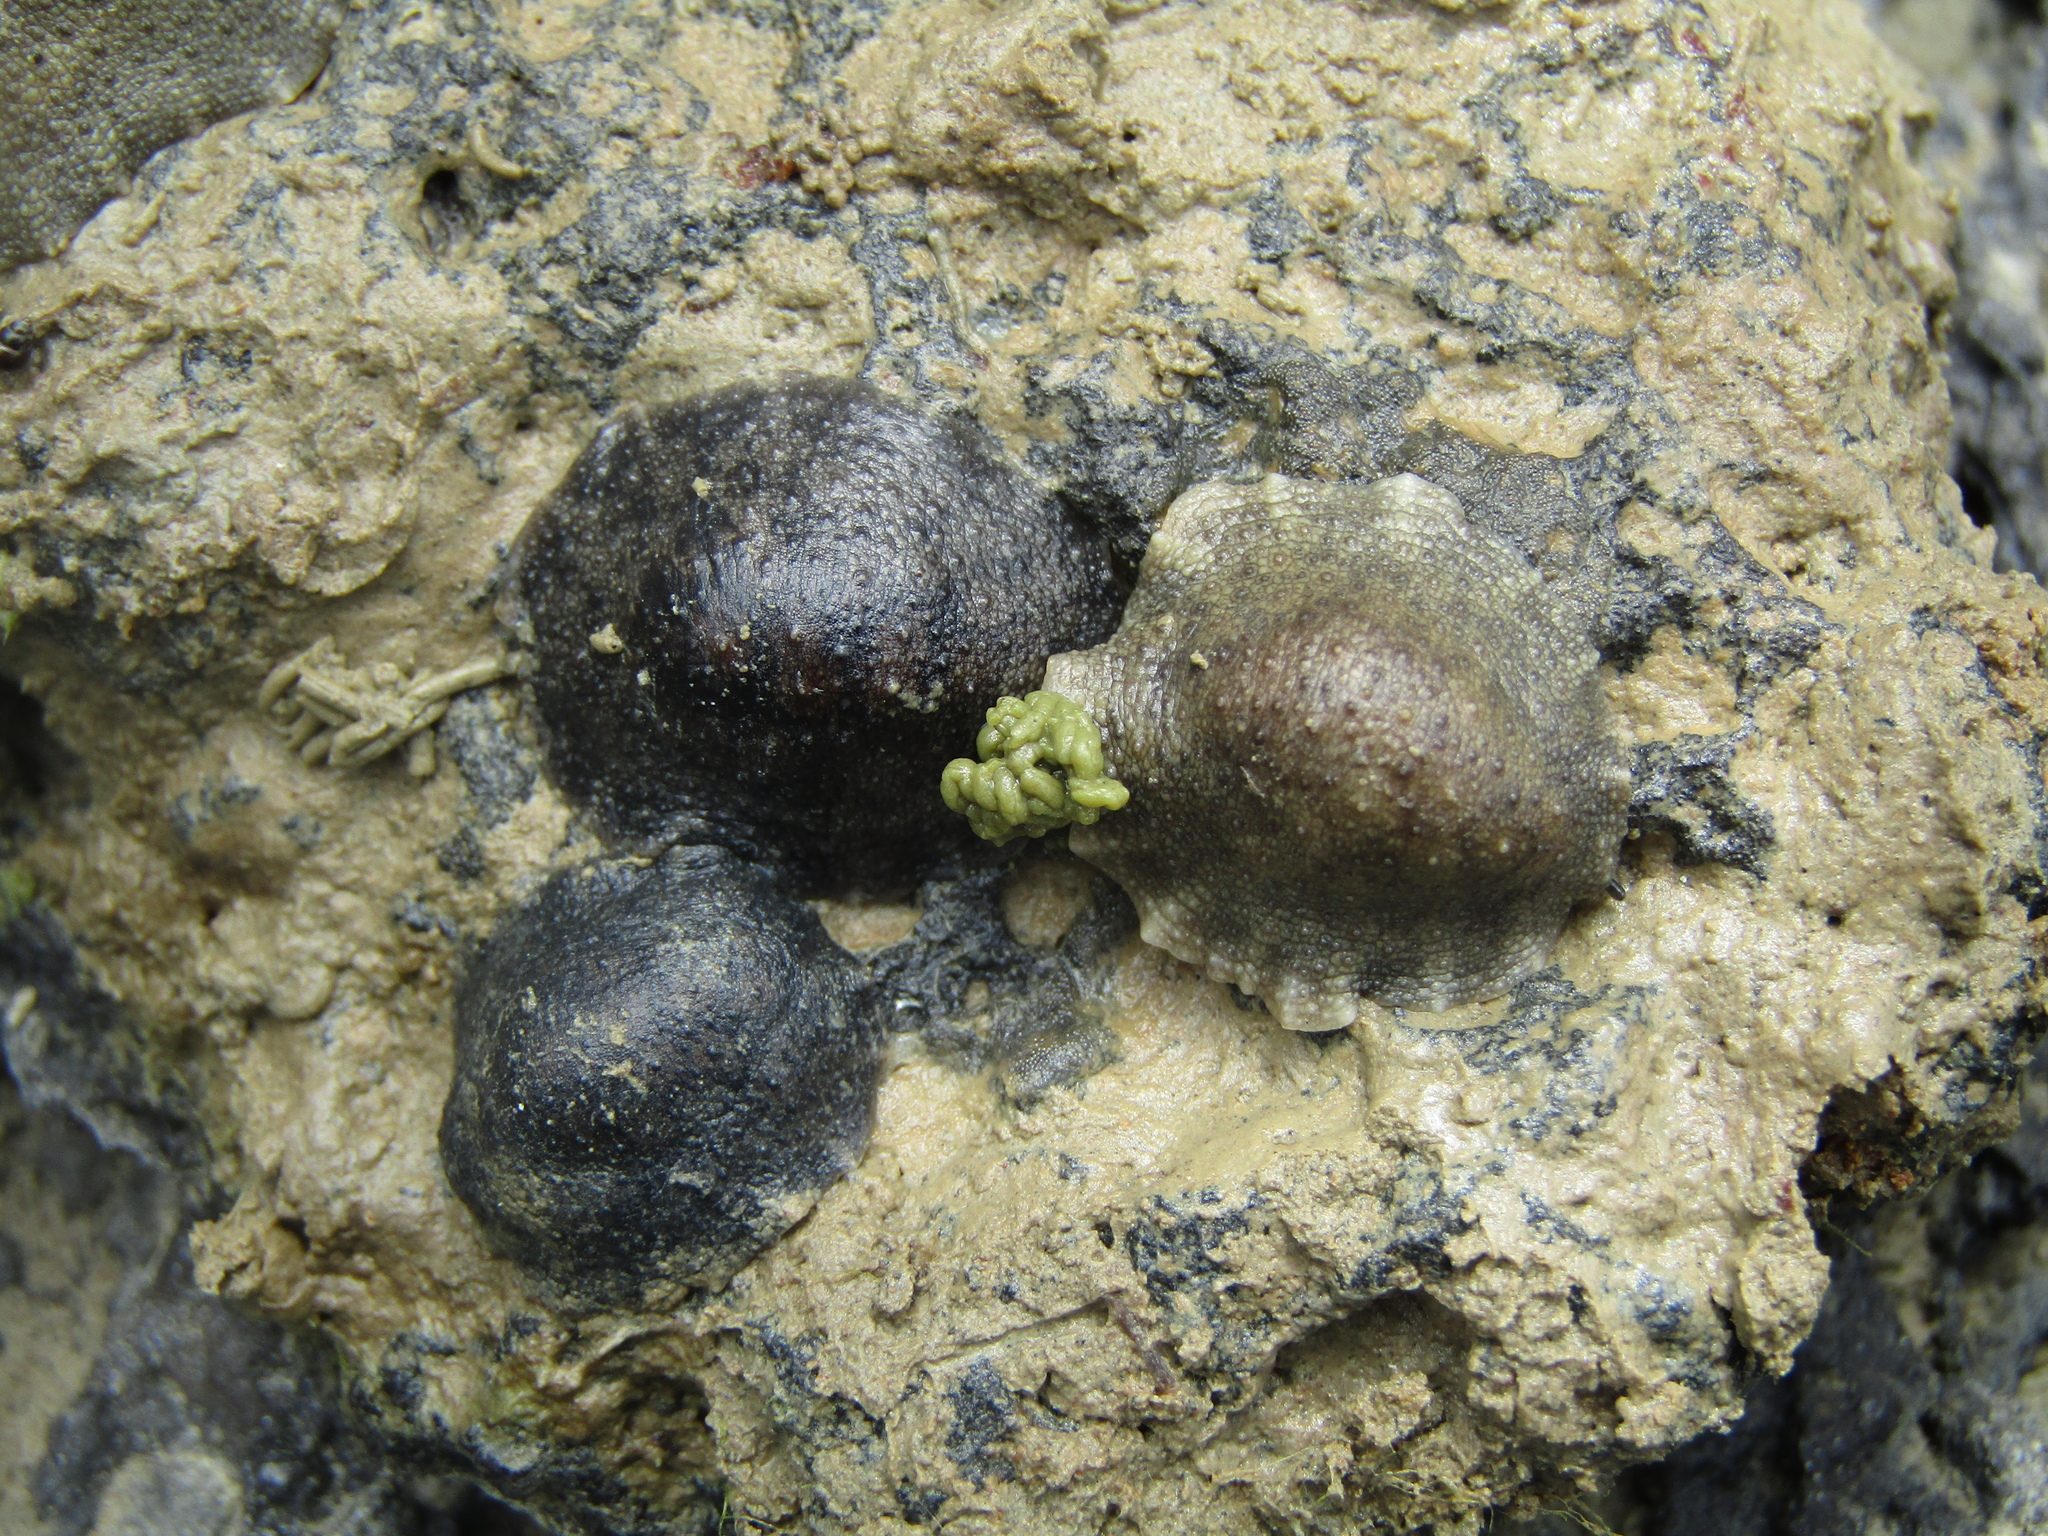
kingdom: Animalia
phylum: Mollusca
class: Gastropoda
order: Systellommatophora
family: Onchidiidae
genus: Onchidella
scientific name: Onchidella nigricans
